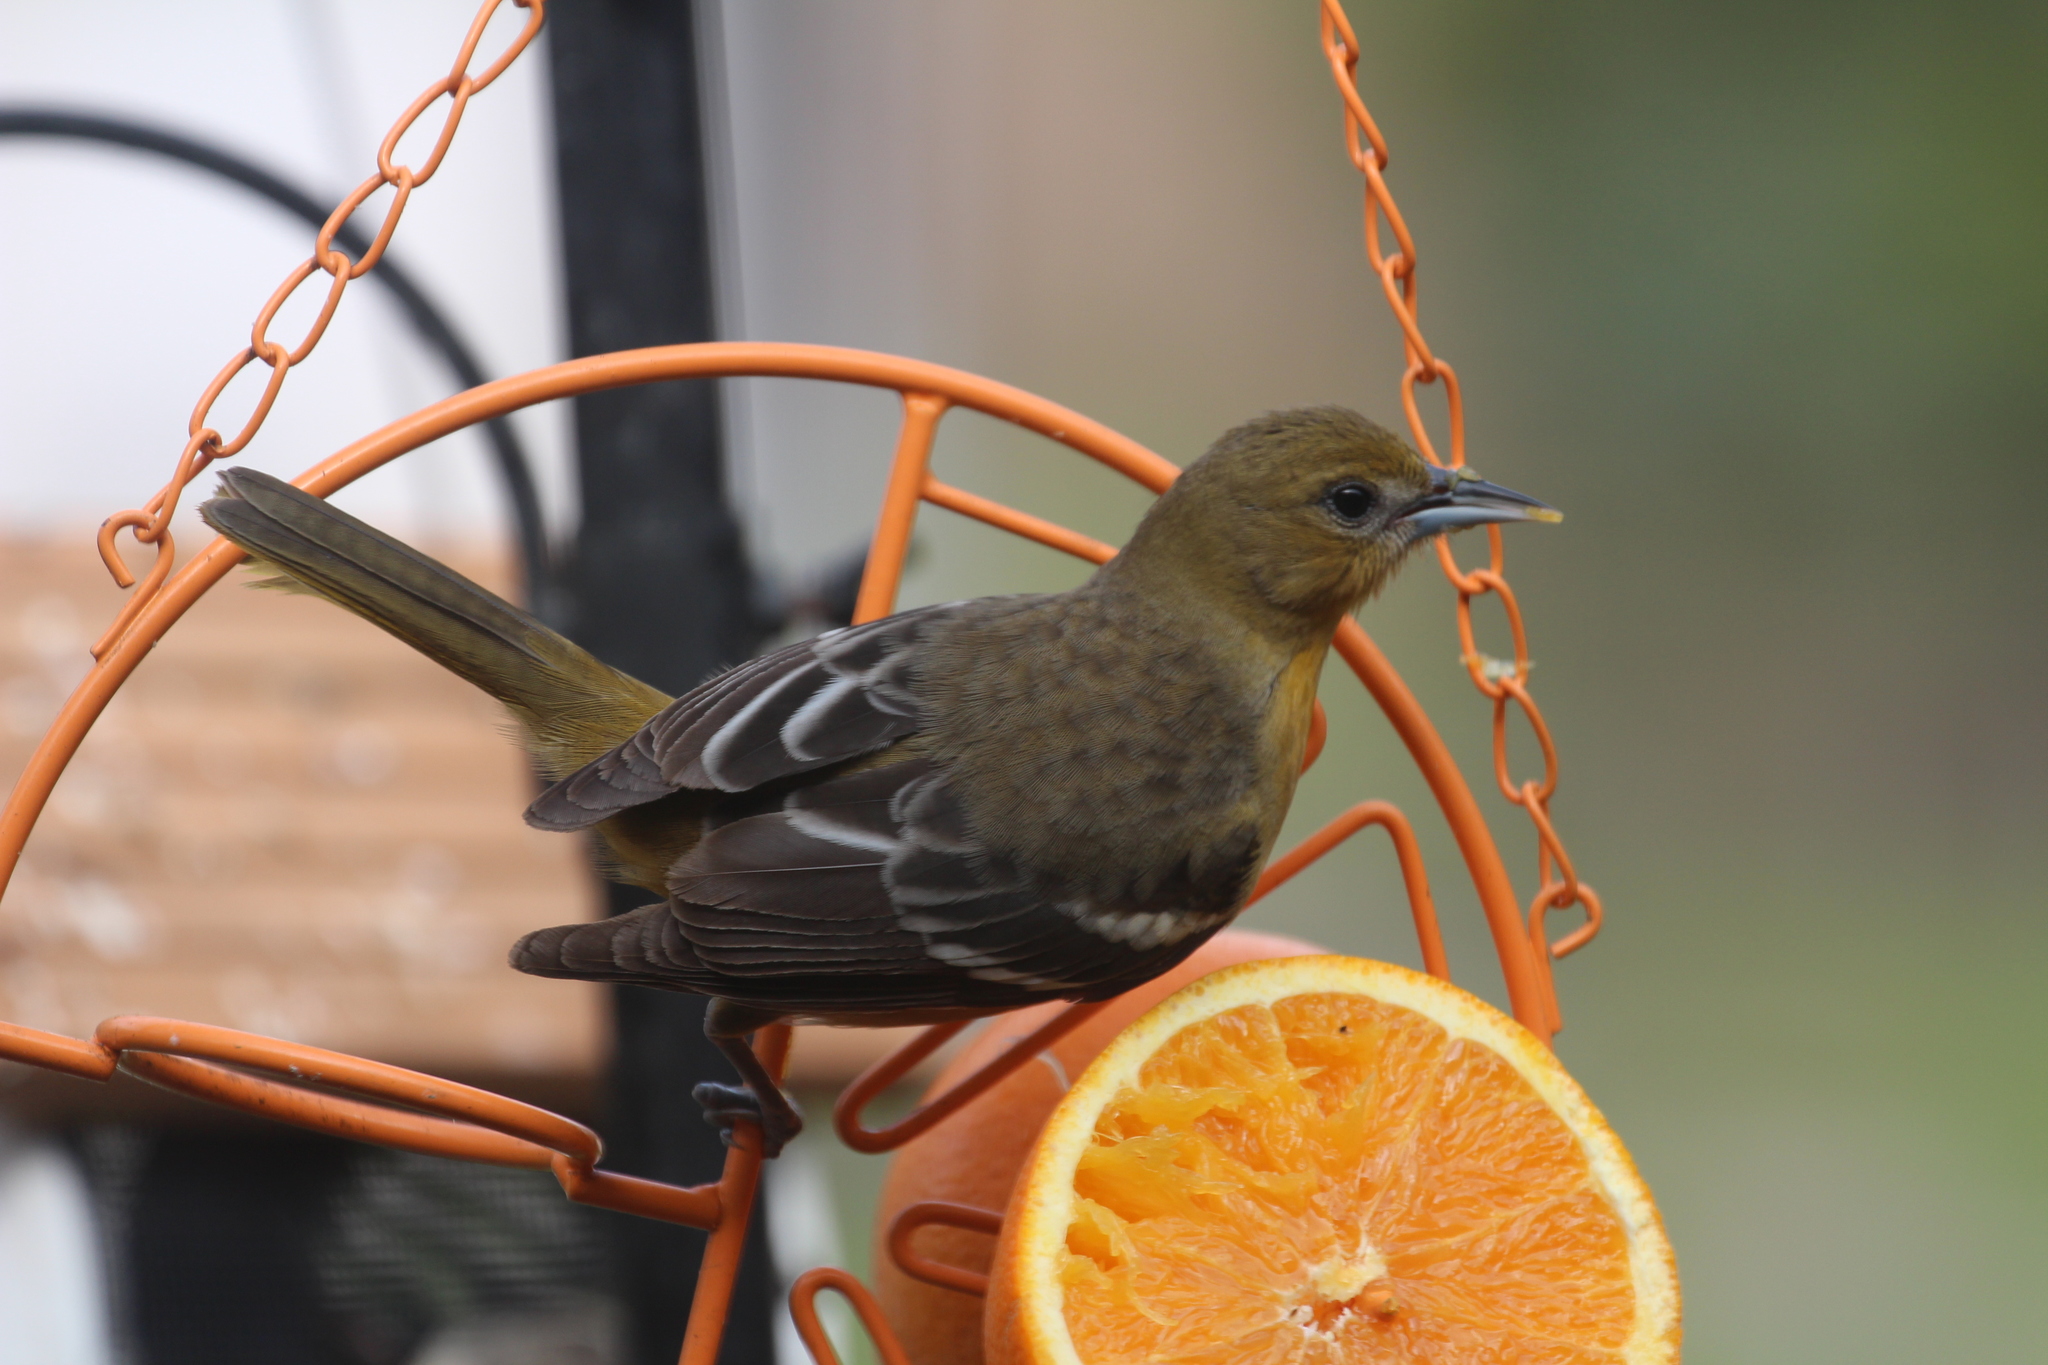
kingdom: Animalia
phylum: Chordata
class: Aves
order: Passeriformes
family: Icteridae
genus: Icterus
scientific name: Icterus galbula
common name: Baltimore oriole
